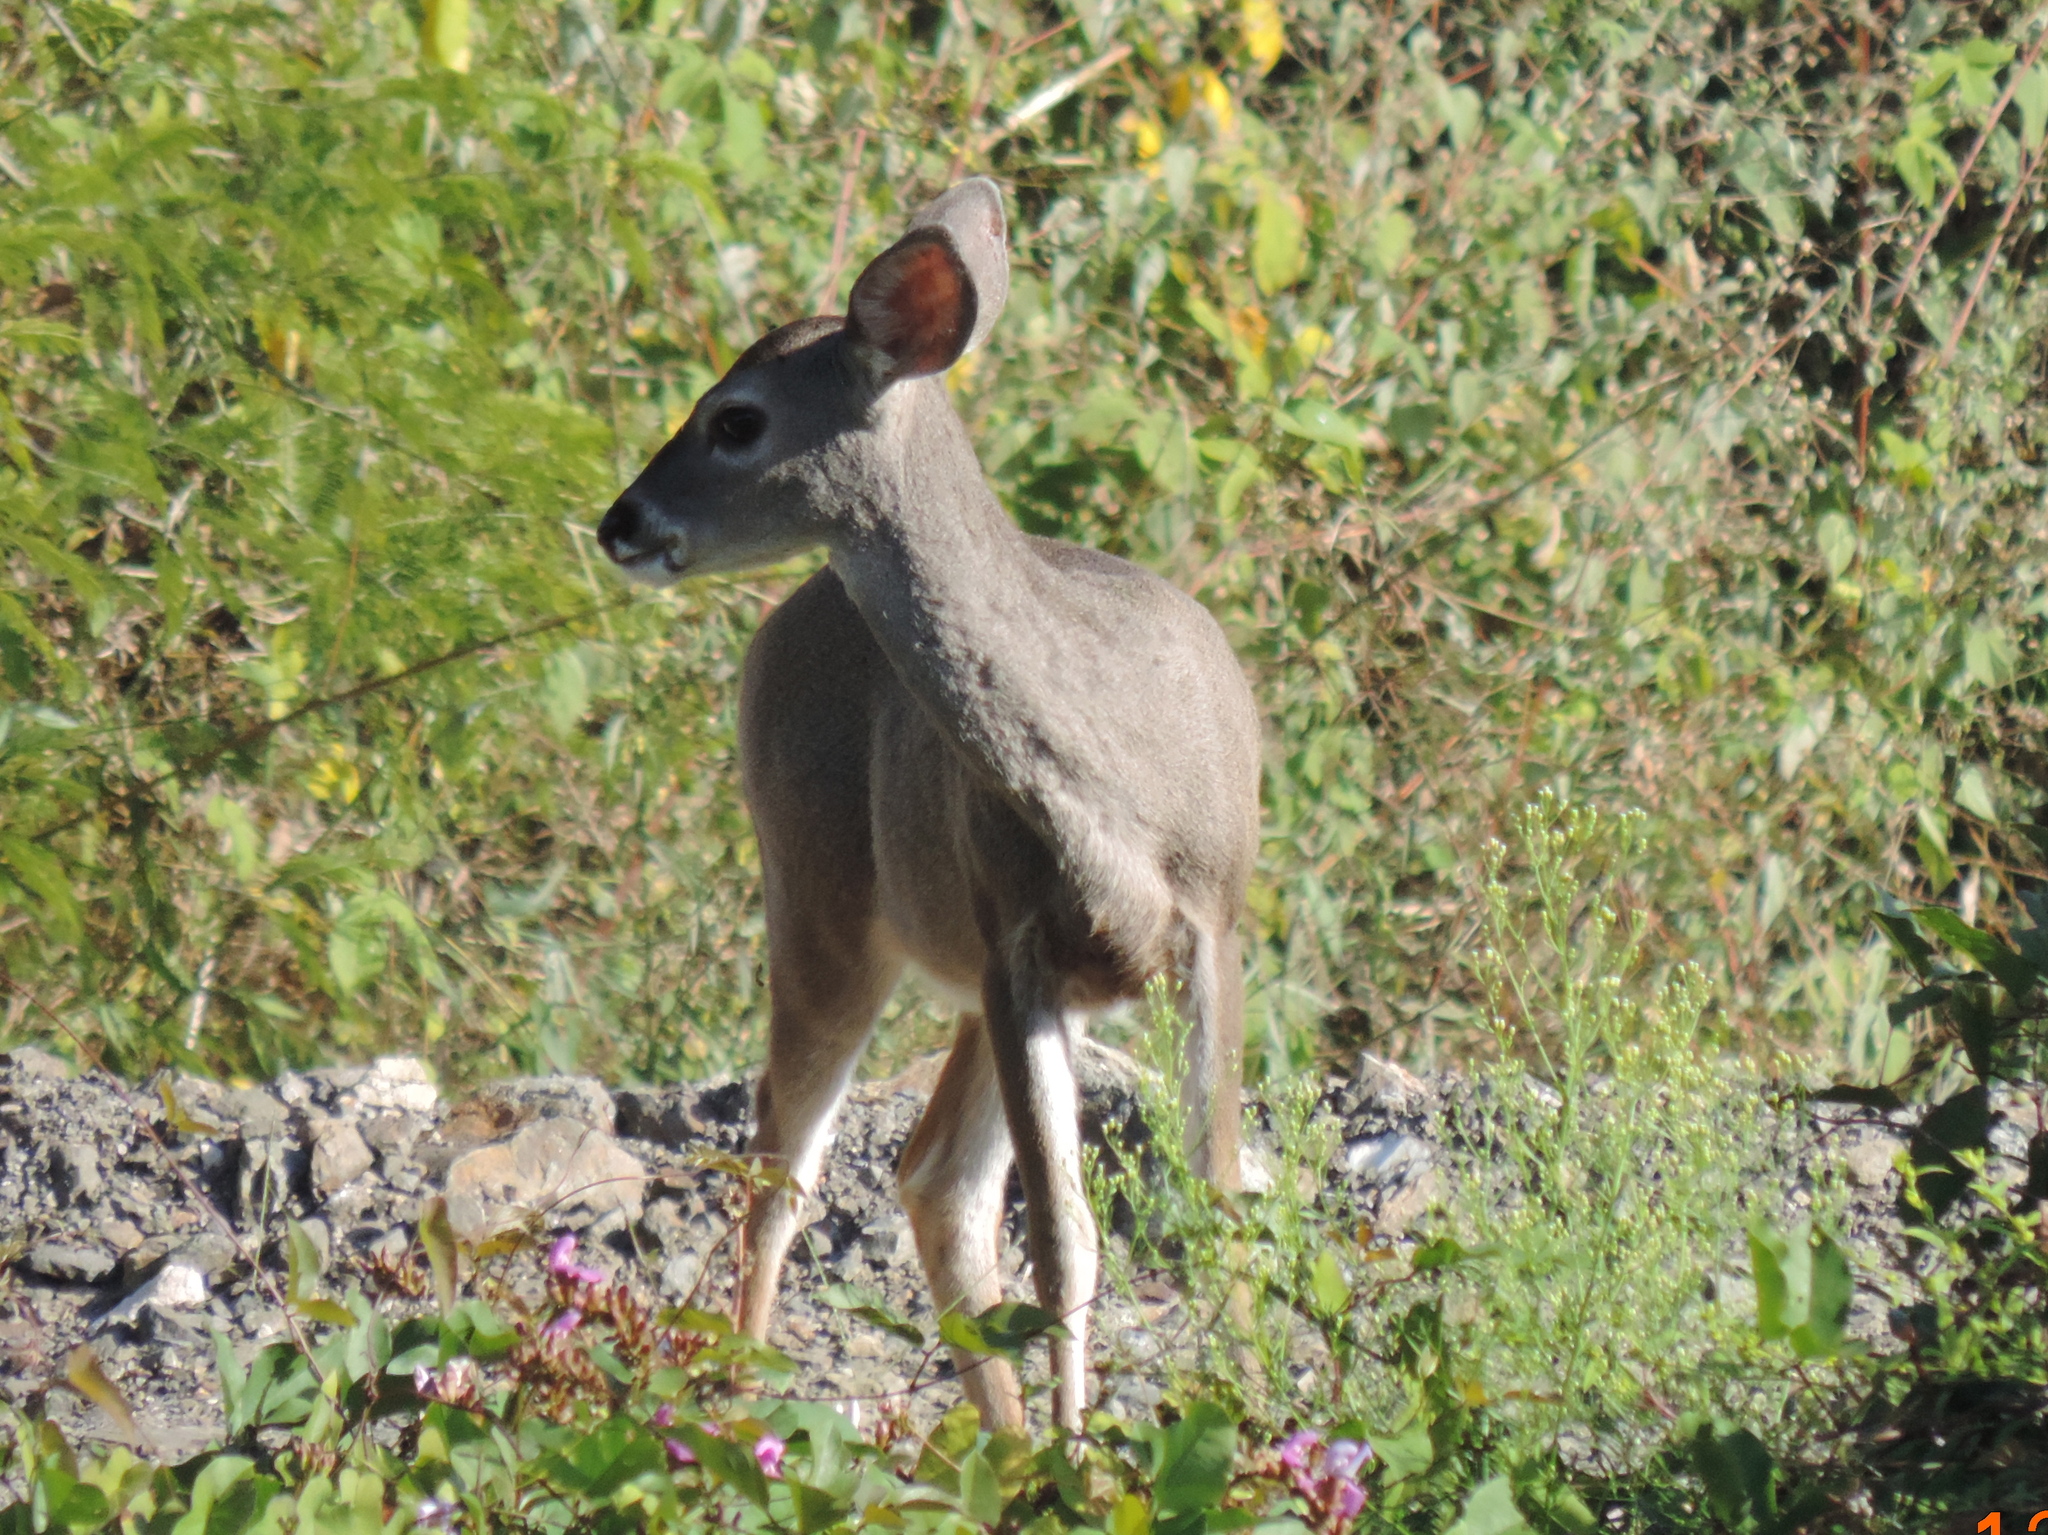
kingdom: Animalia
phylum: Chordata
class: Mammalia
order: Artiodactyla
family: Cervidae
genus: Odocoileus
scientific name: Odocoileus virginianus
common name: White-tailed deer
